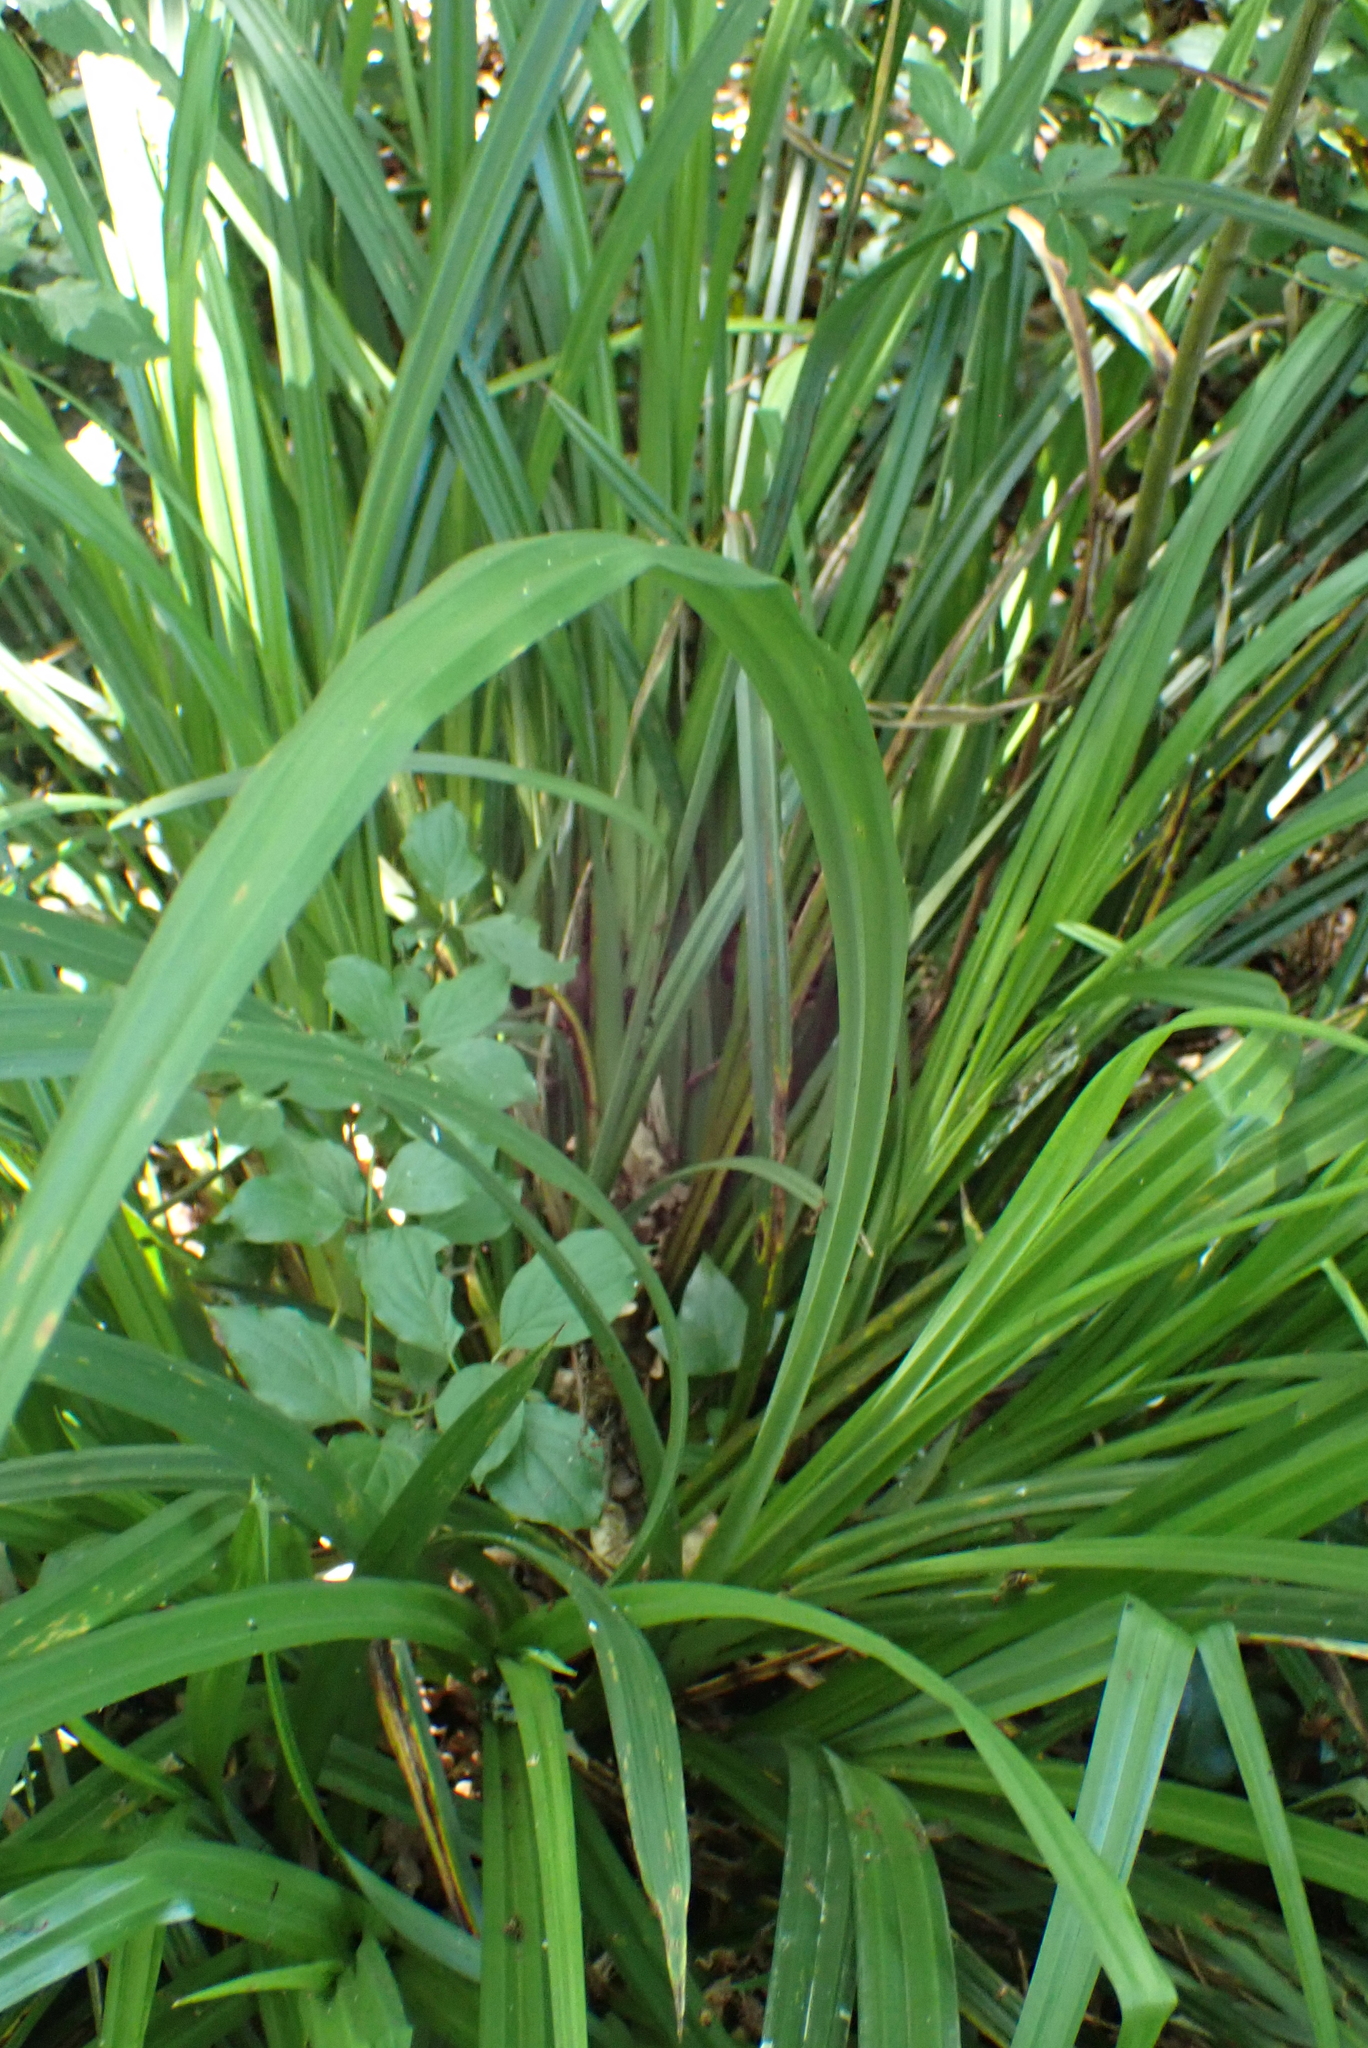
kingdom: Plantae
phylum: Tracheophyta
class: Liliopsida
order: Poales
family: Cyperaceae
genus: Carex
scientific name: Carex pendula
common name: Pendulous sedge
